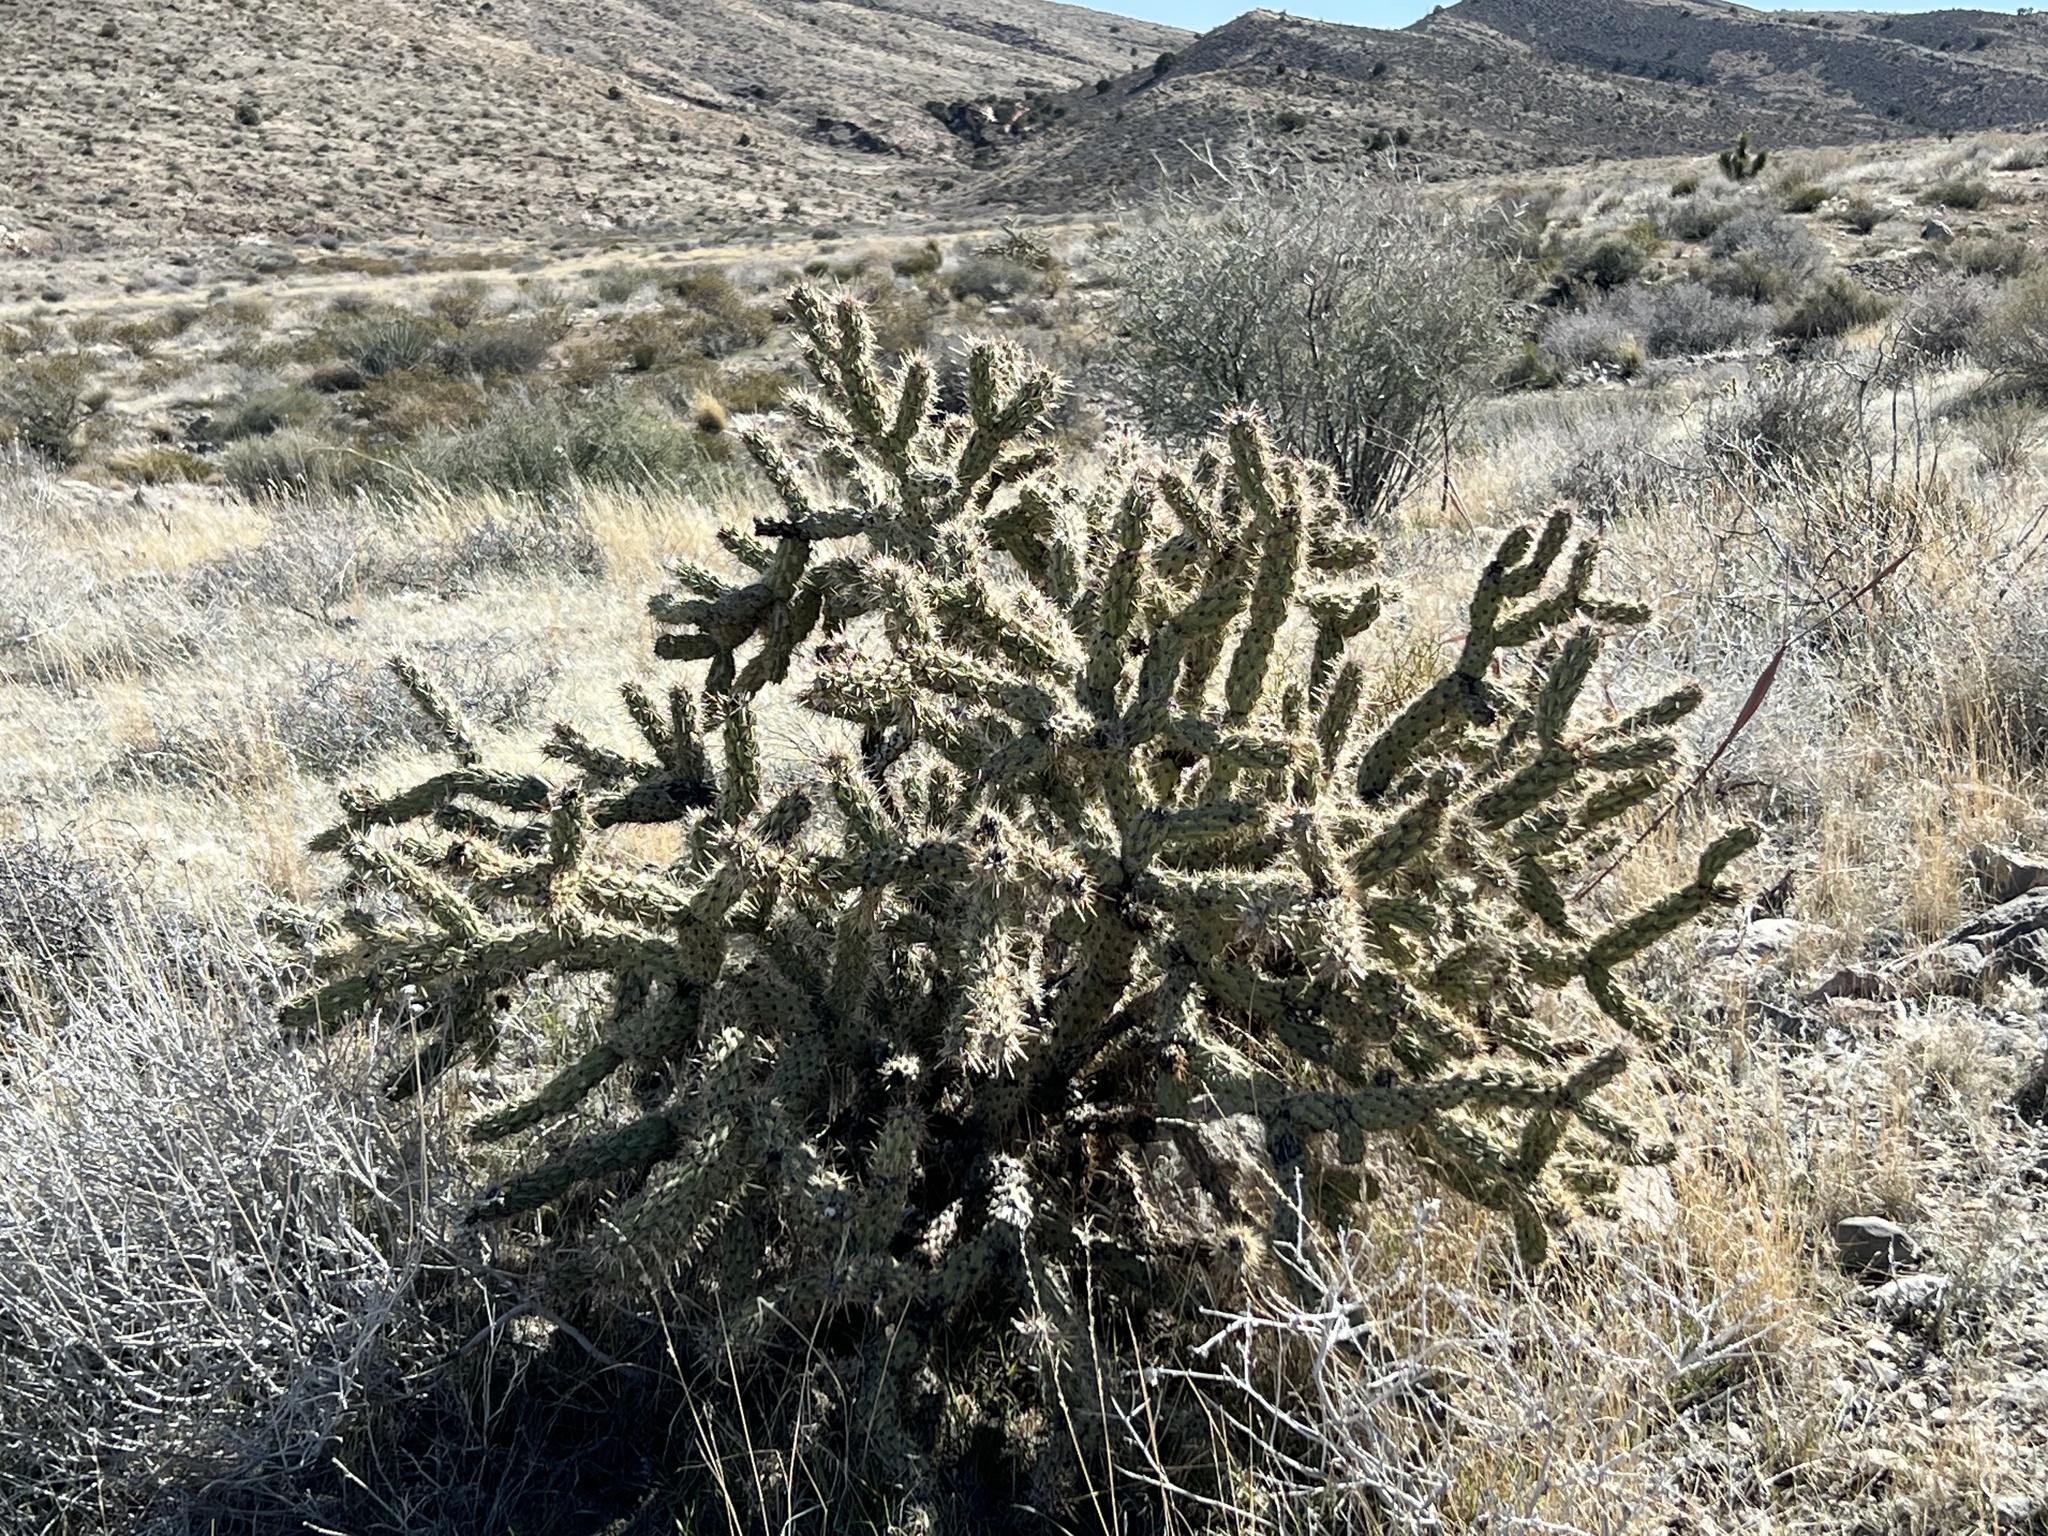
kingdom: Plantae
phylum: Tracheophyta
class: Magnoliopsida
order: Caryophyllales
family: Cactaceae
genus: Cylindropuntia
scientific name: Cylindropuntia acanthocarpa
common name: Buckhorn cholla
